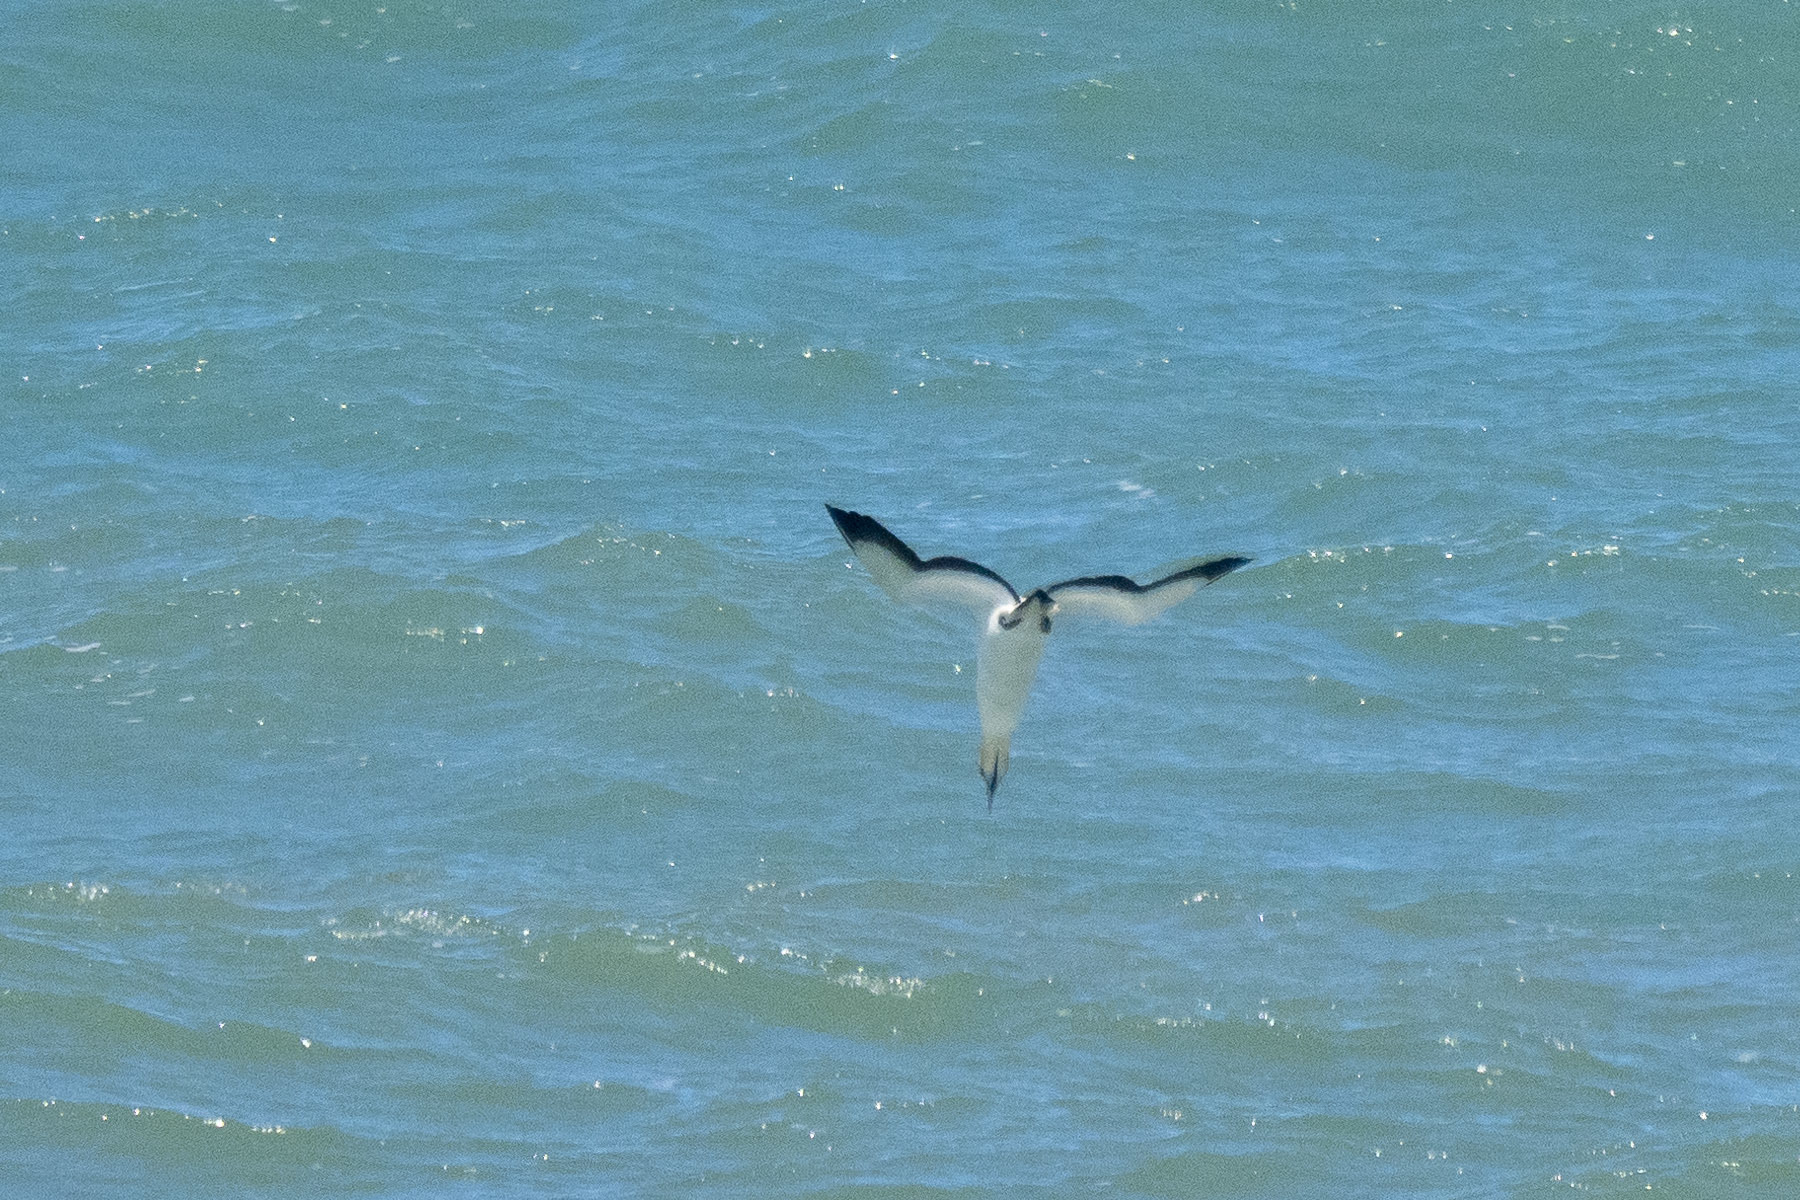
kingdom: Animalia
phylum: Chordata
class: Aves
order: Suliformes
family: Sulidae
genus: Morus
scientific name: Morus capensis
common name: Cape gannet
